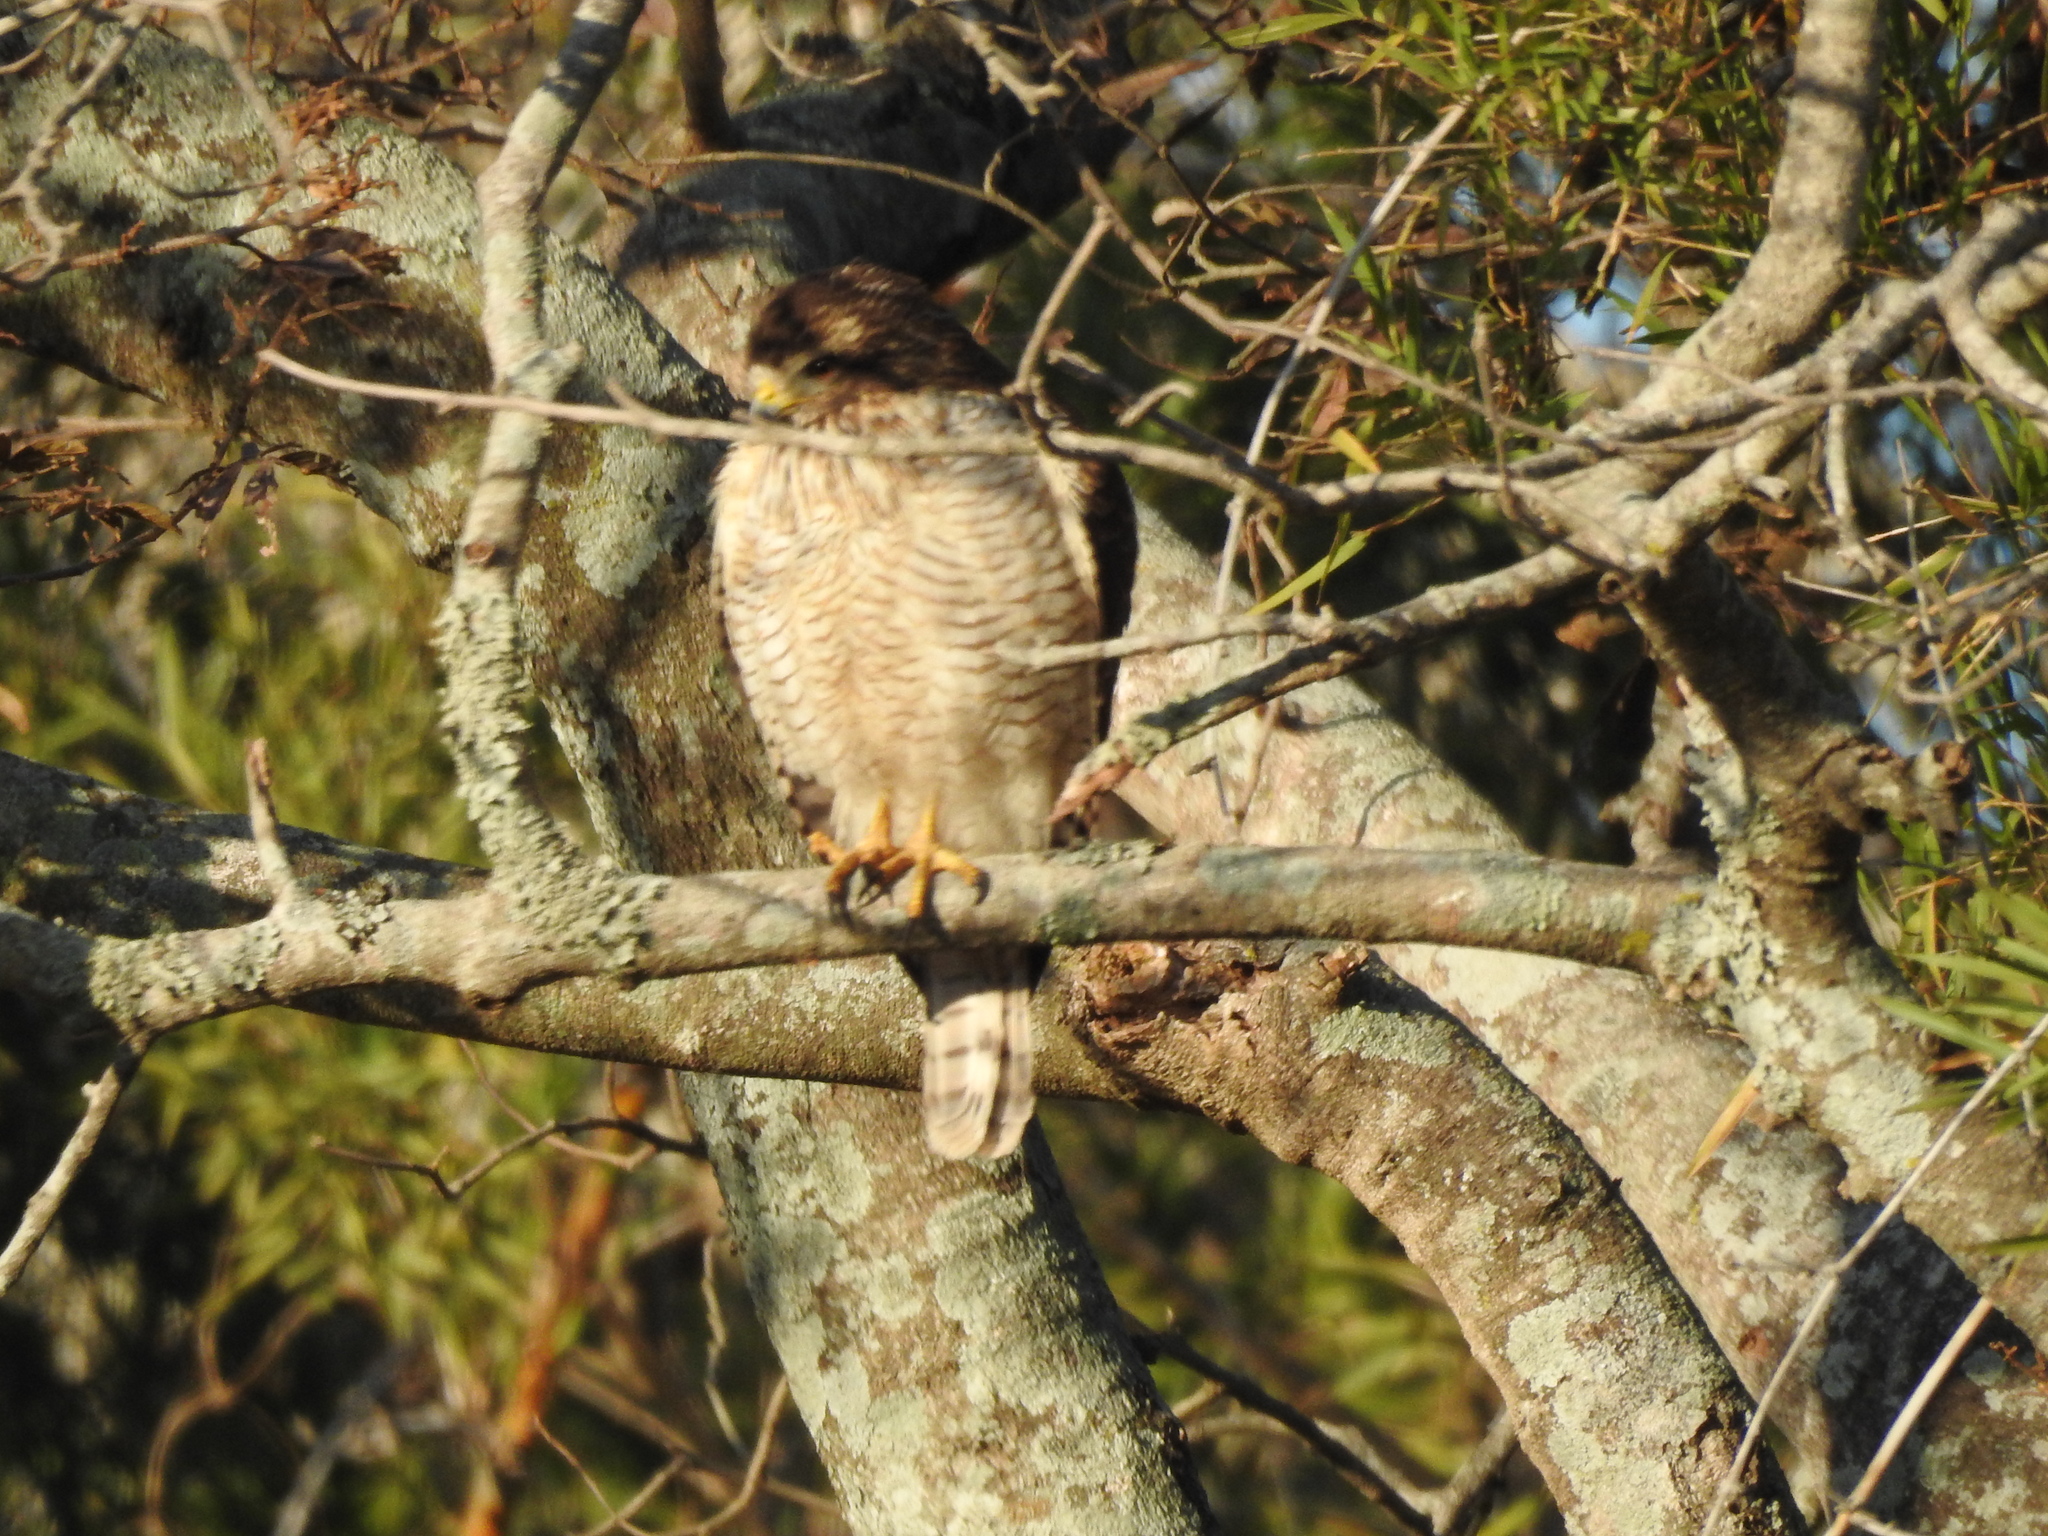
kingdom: Animalia
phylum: Chordata
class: Aves
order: Accipitriformes
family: Accipitridae
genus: Rupornis
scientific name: Rupornis magnirostris
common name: Roadside hawk
